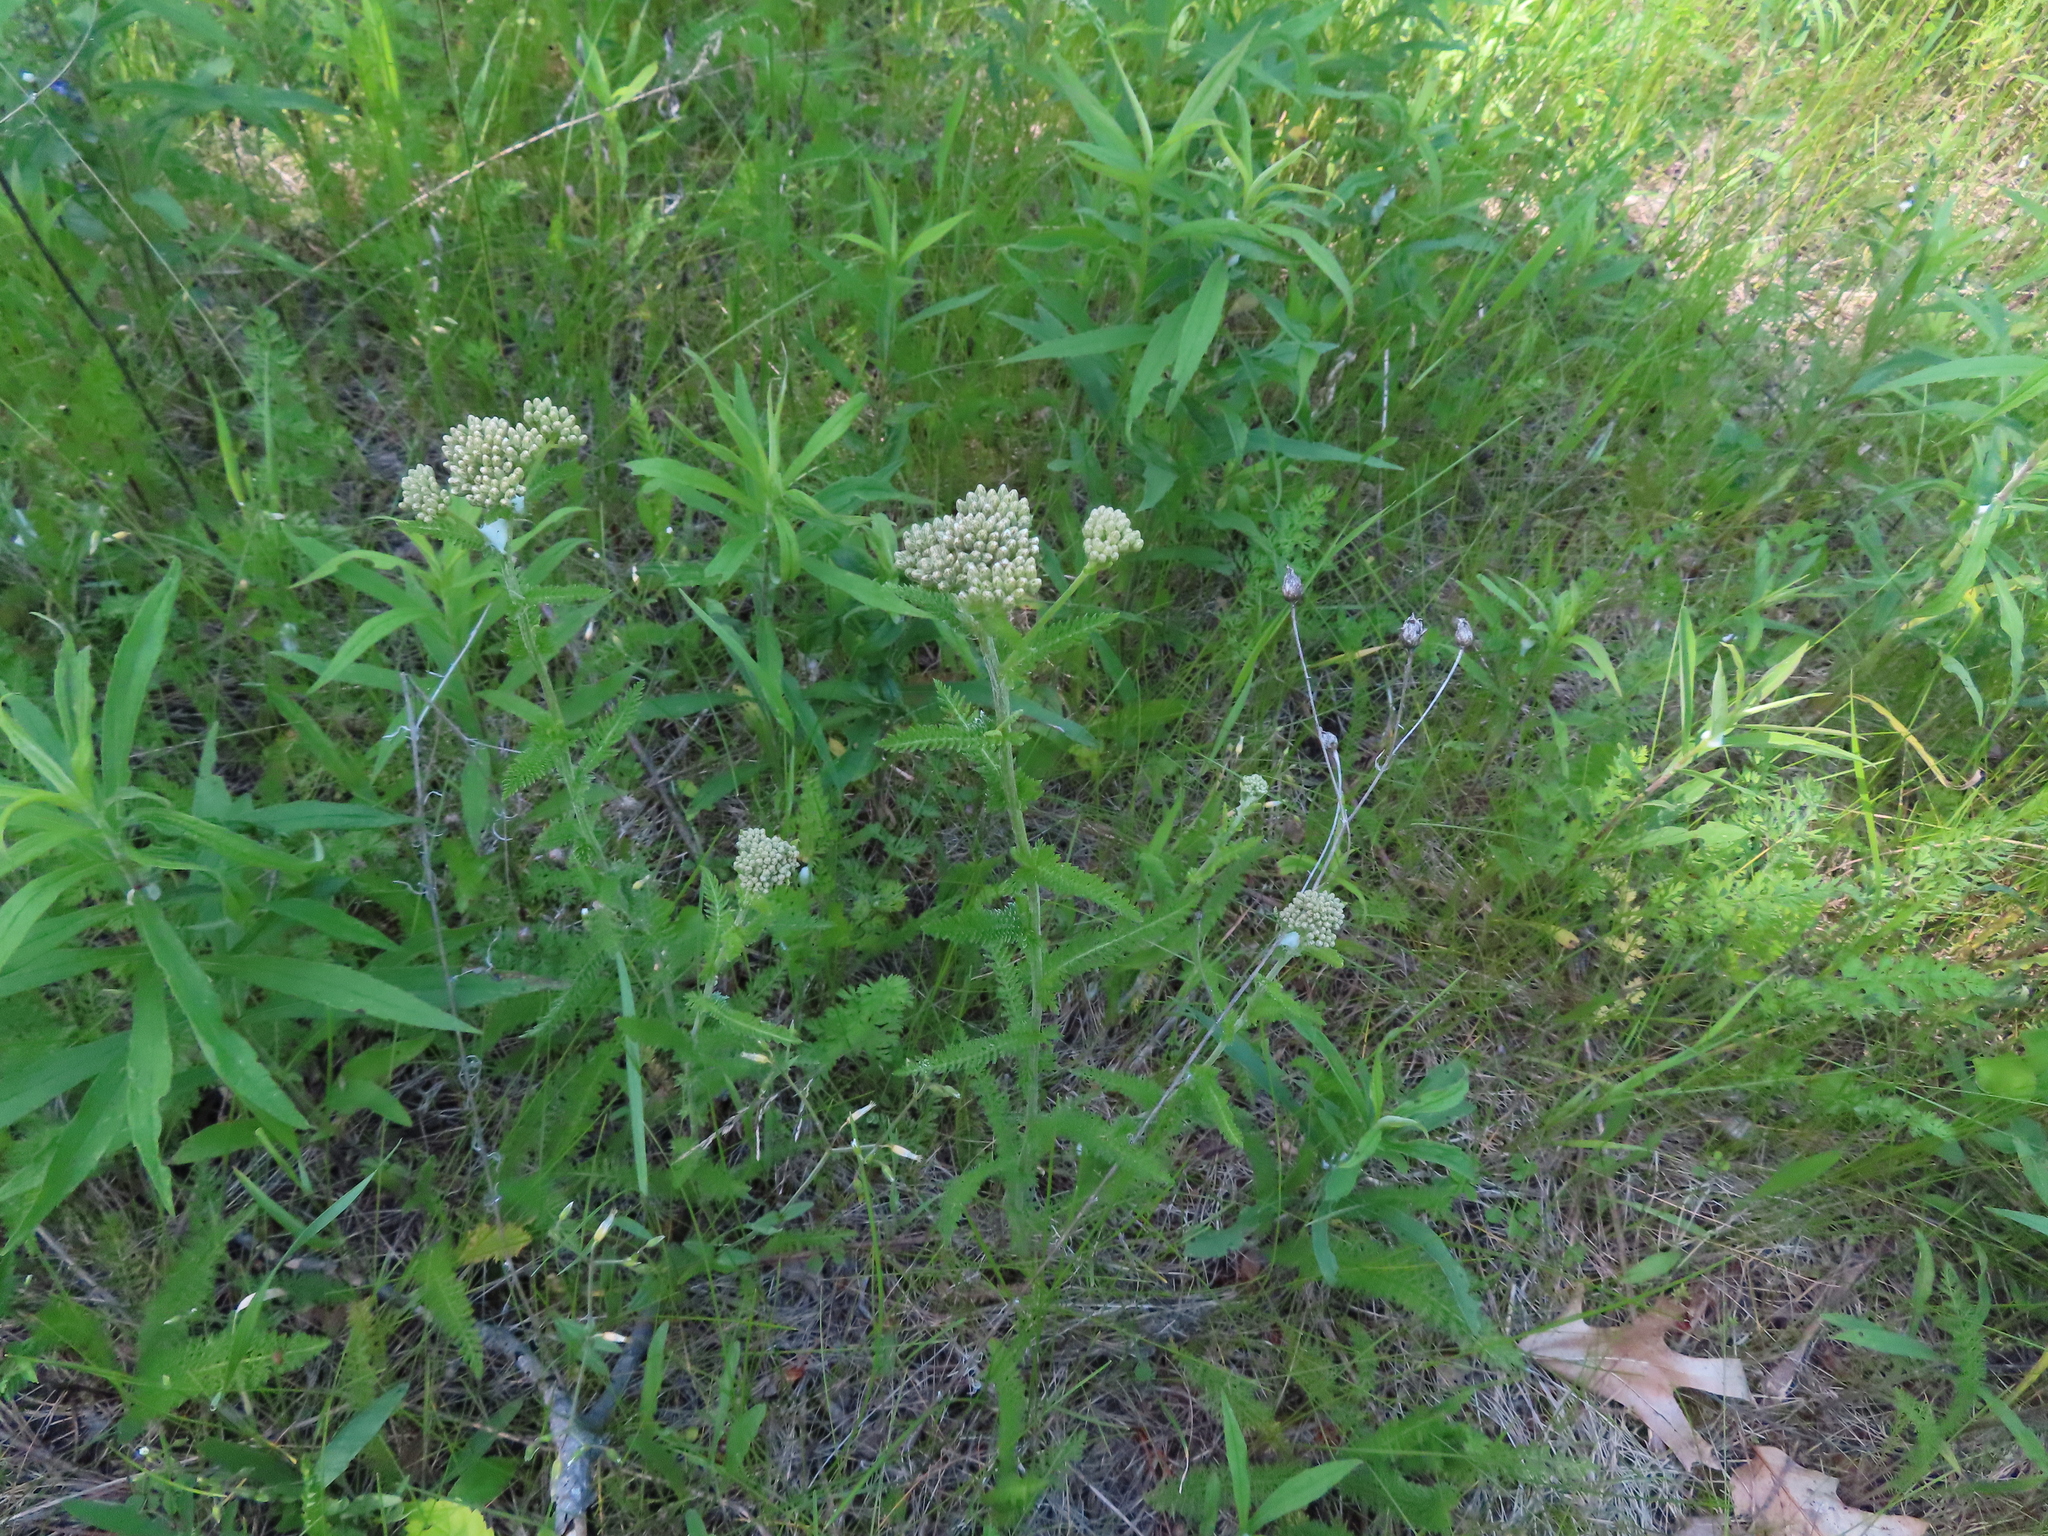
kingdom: Plantae
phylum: Tracheophyta
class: Magnoliopsida
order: Asterales
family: Asteraceae
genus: Achillea
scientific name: Achillea millefolium
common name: Yarrow
